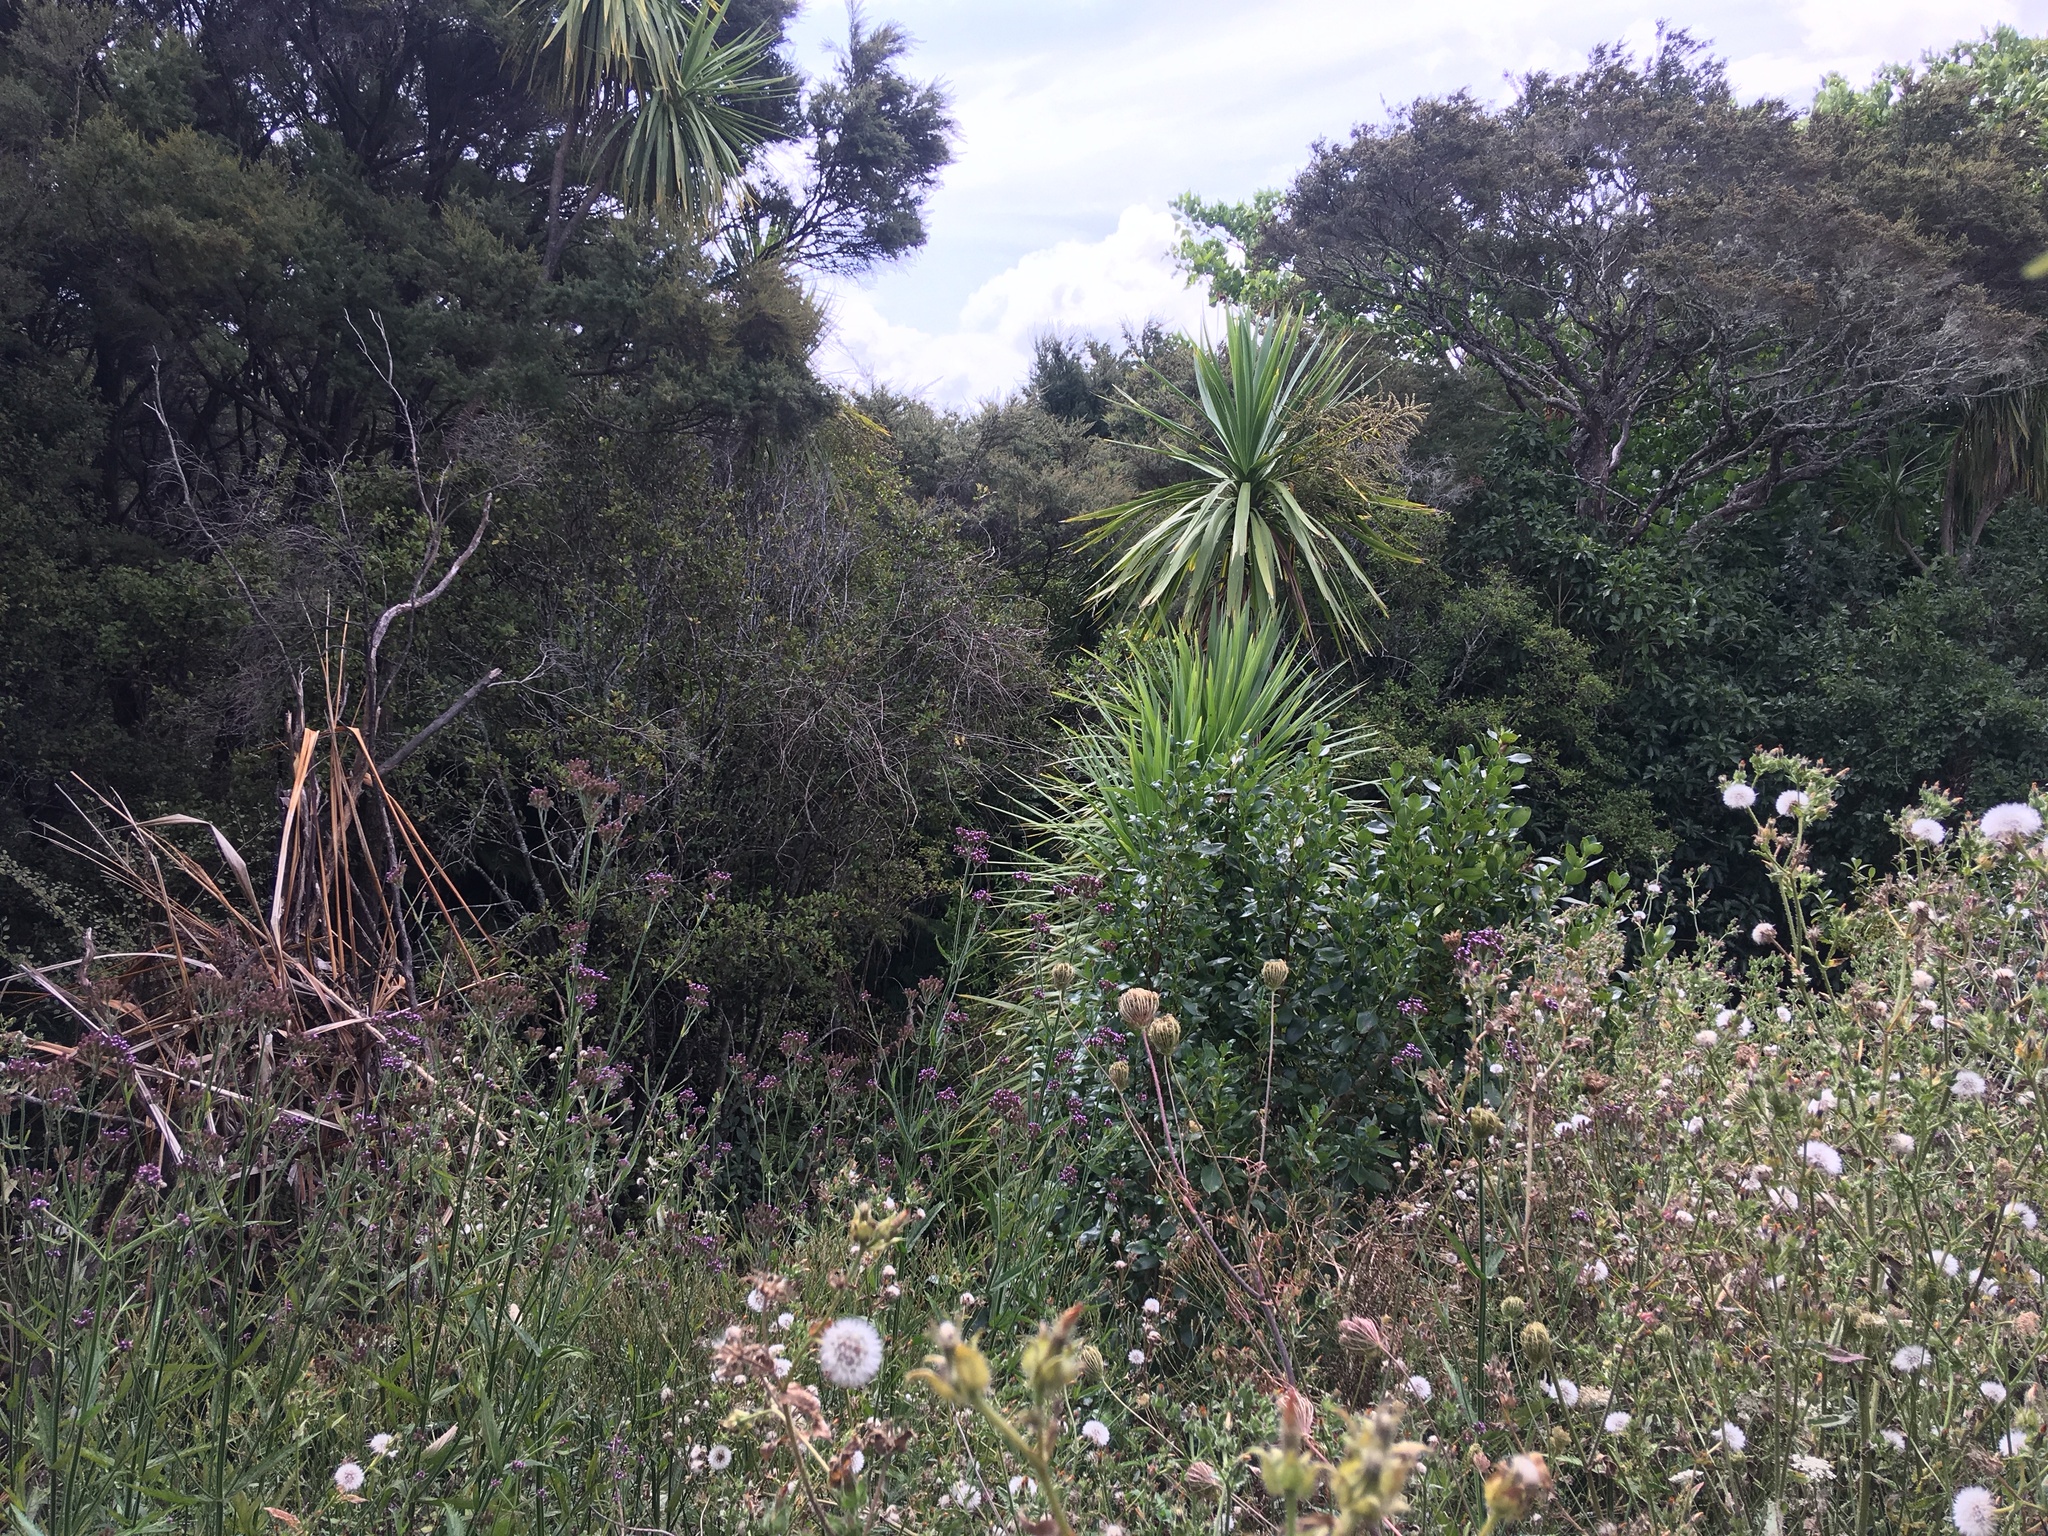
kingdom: Plantae
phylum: Tracheophyta
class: Liliopsida
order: Asparagales
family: Asparagaceae
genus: Cordyline
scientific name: Cordyline australis
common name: Cabbage-palm
